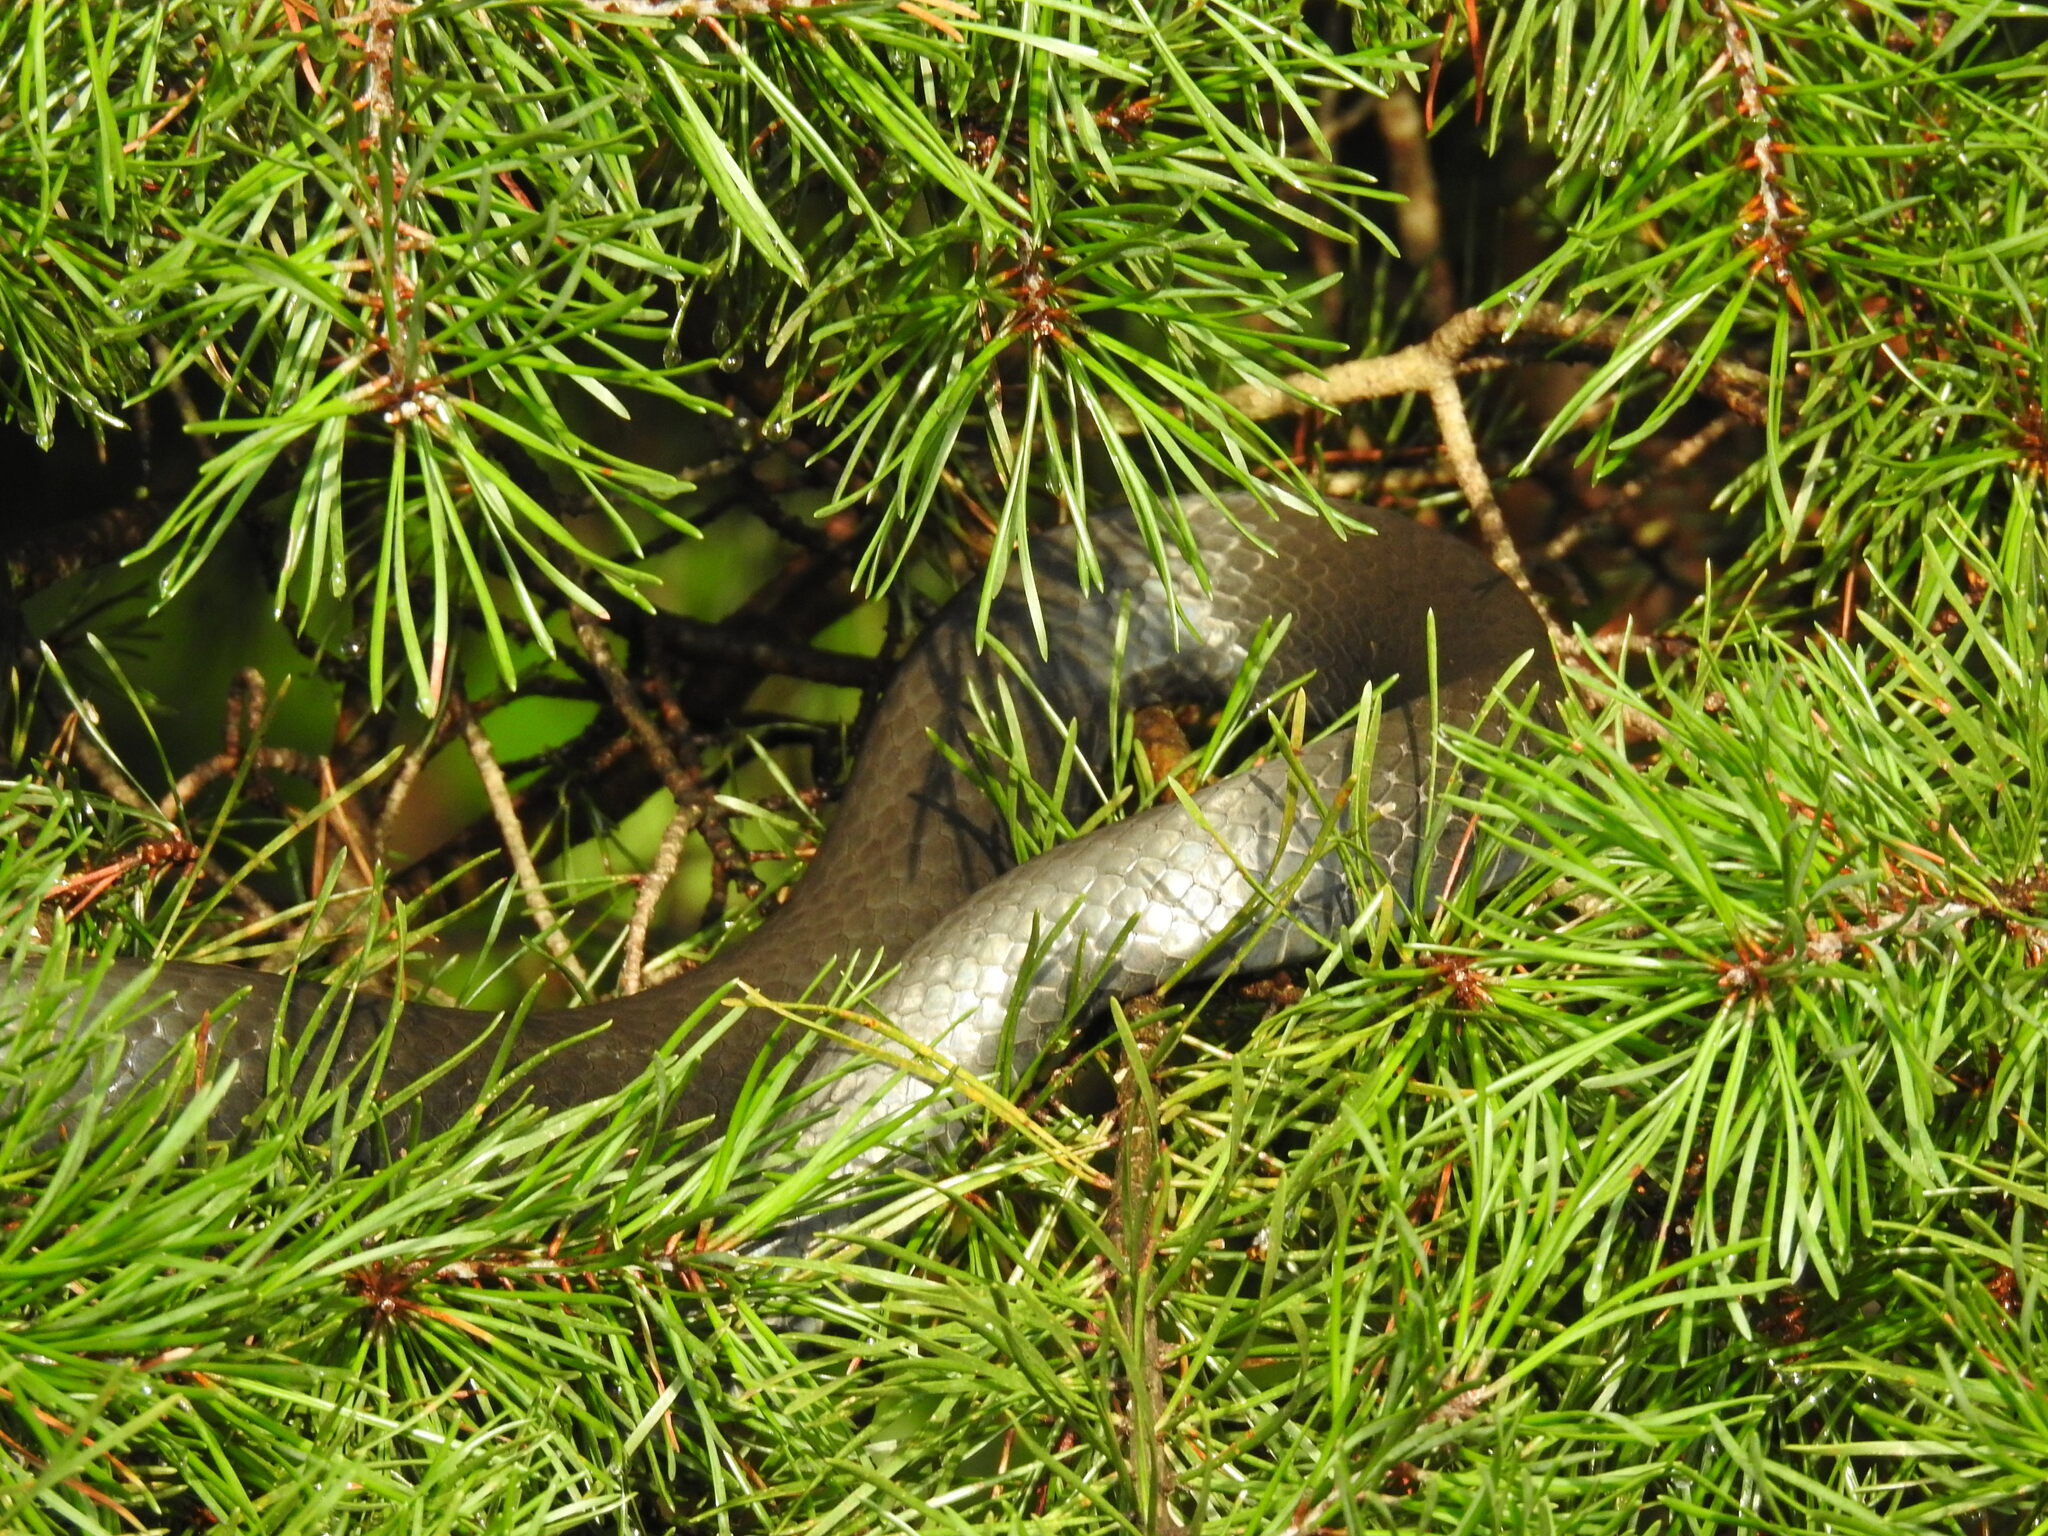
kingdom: Animalia
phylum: Chordata
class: Squamata
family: Colubridae
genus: Coluber
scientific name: Coluber constrictor
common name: Eastern racer
